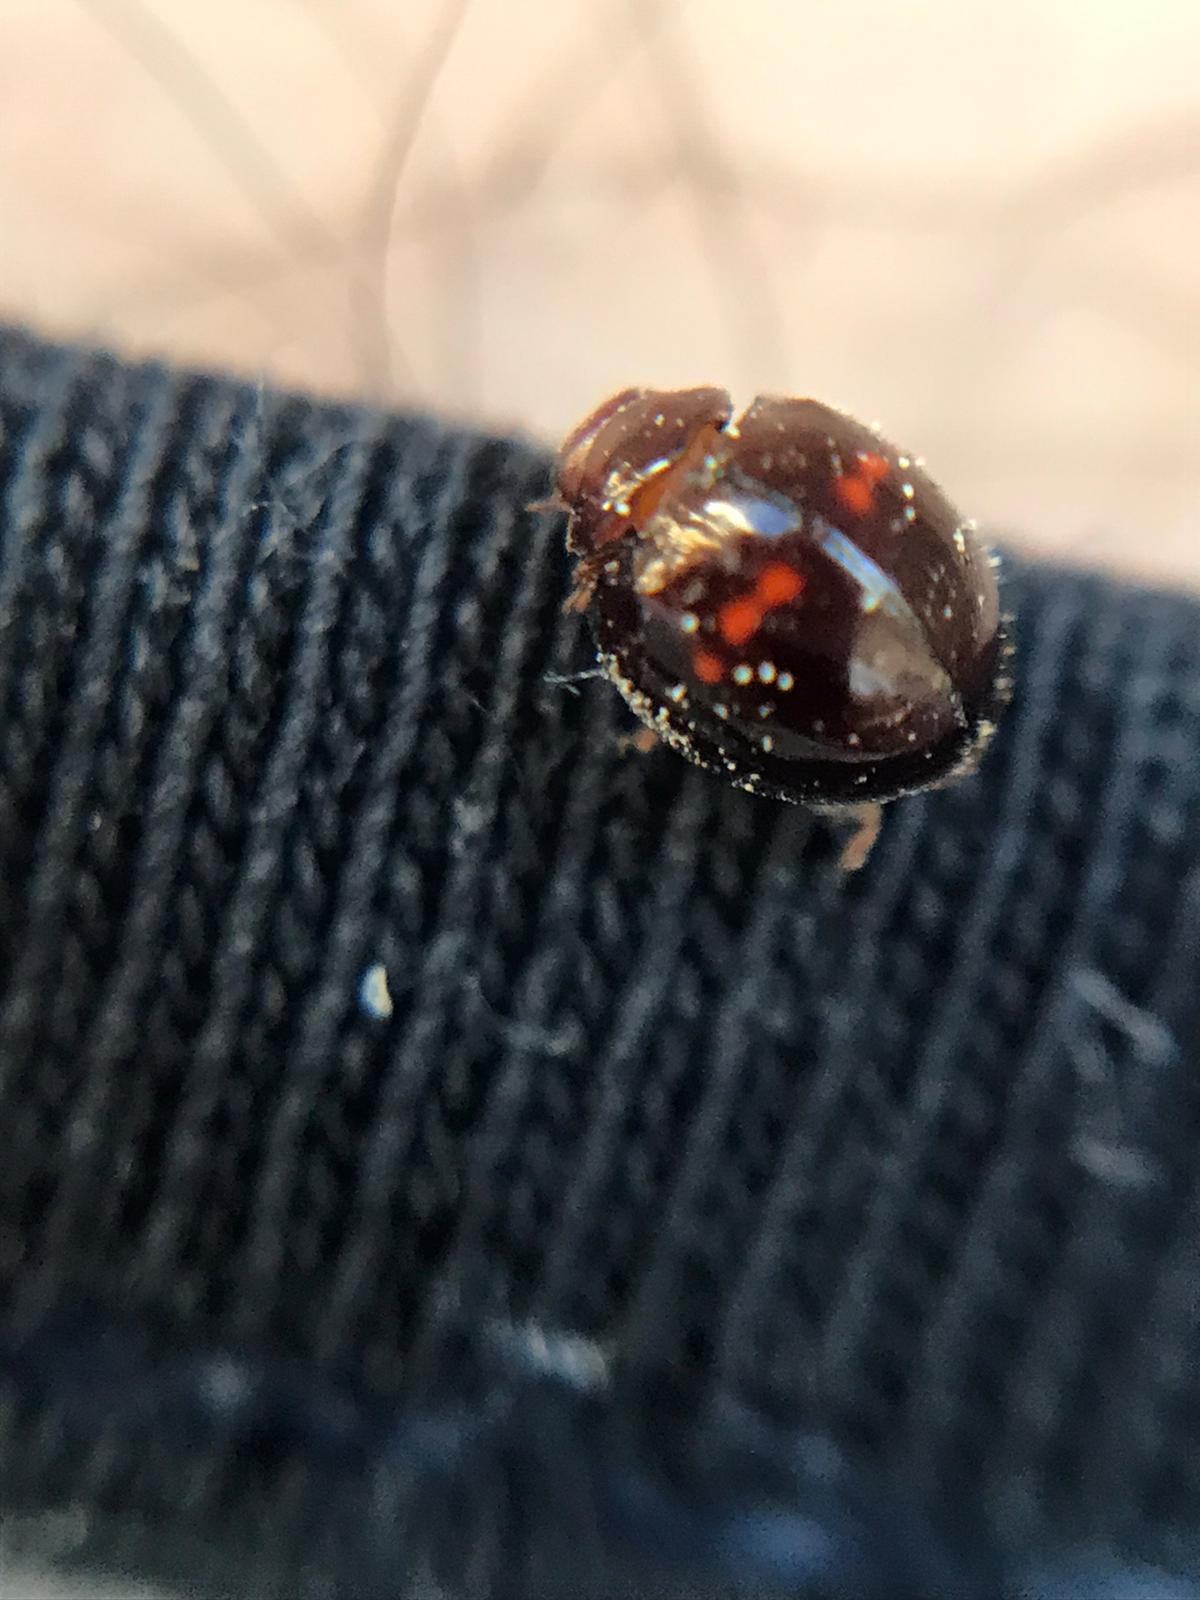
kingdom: Animalia
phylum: Arthropoda
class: Insecta
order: Coleoptera
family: Coccinellidae
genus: Chilocorus
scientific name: Chilocorus bipustulatus
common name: Heather ladybird
